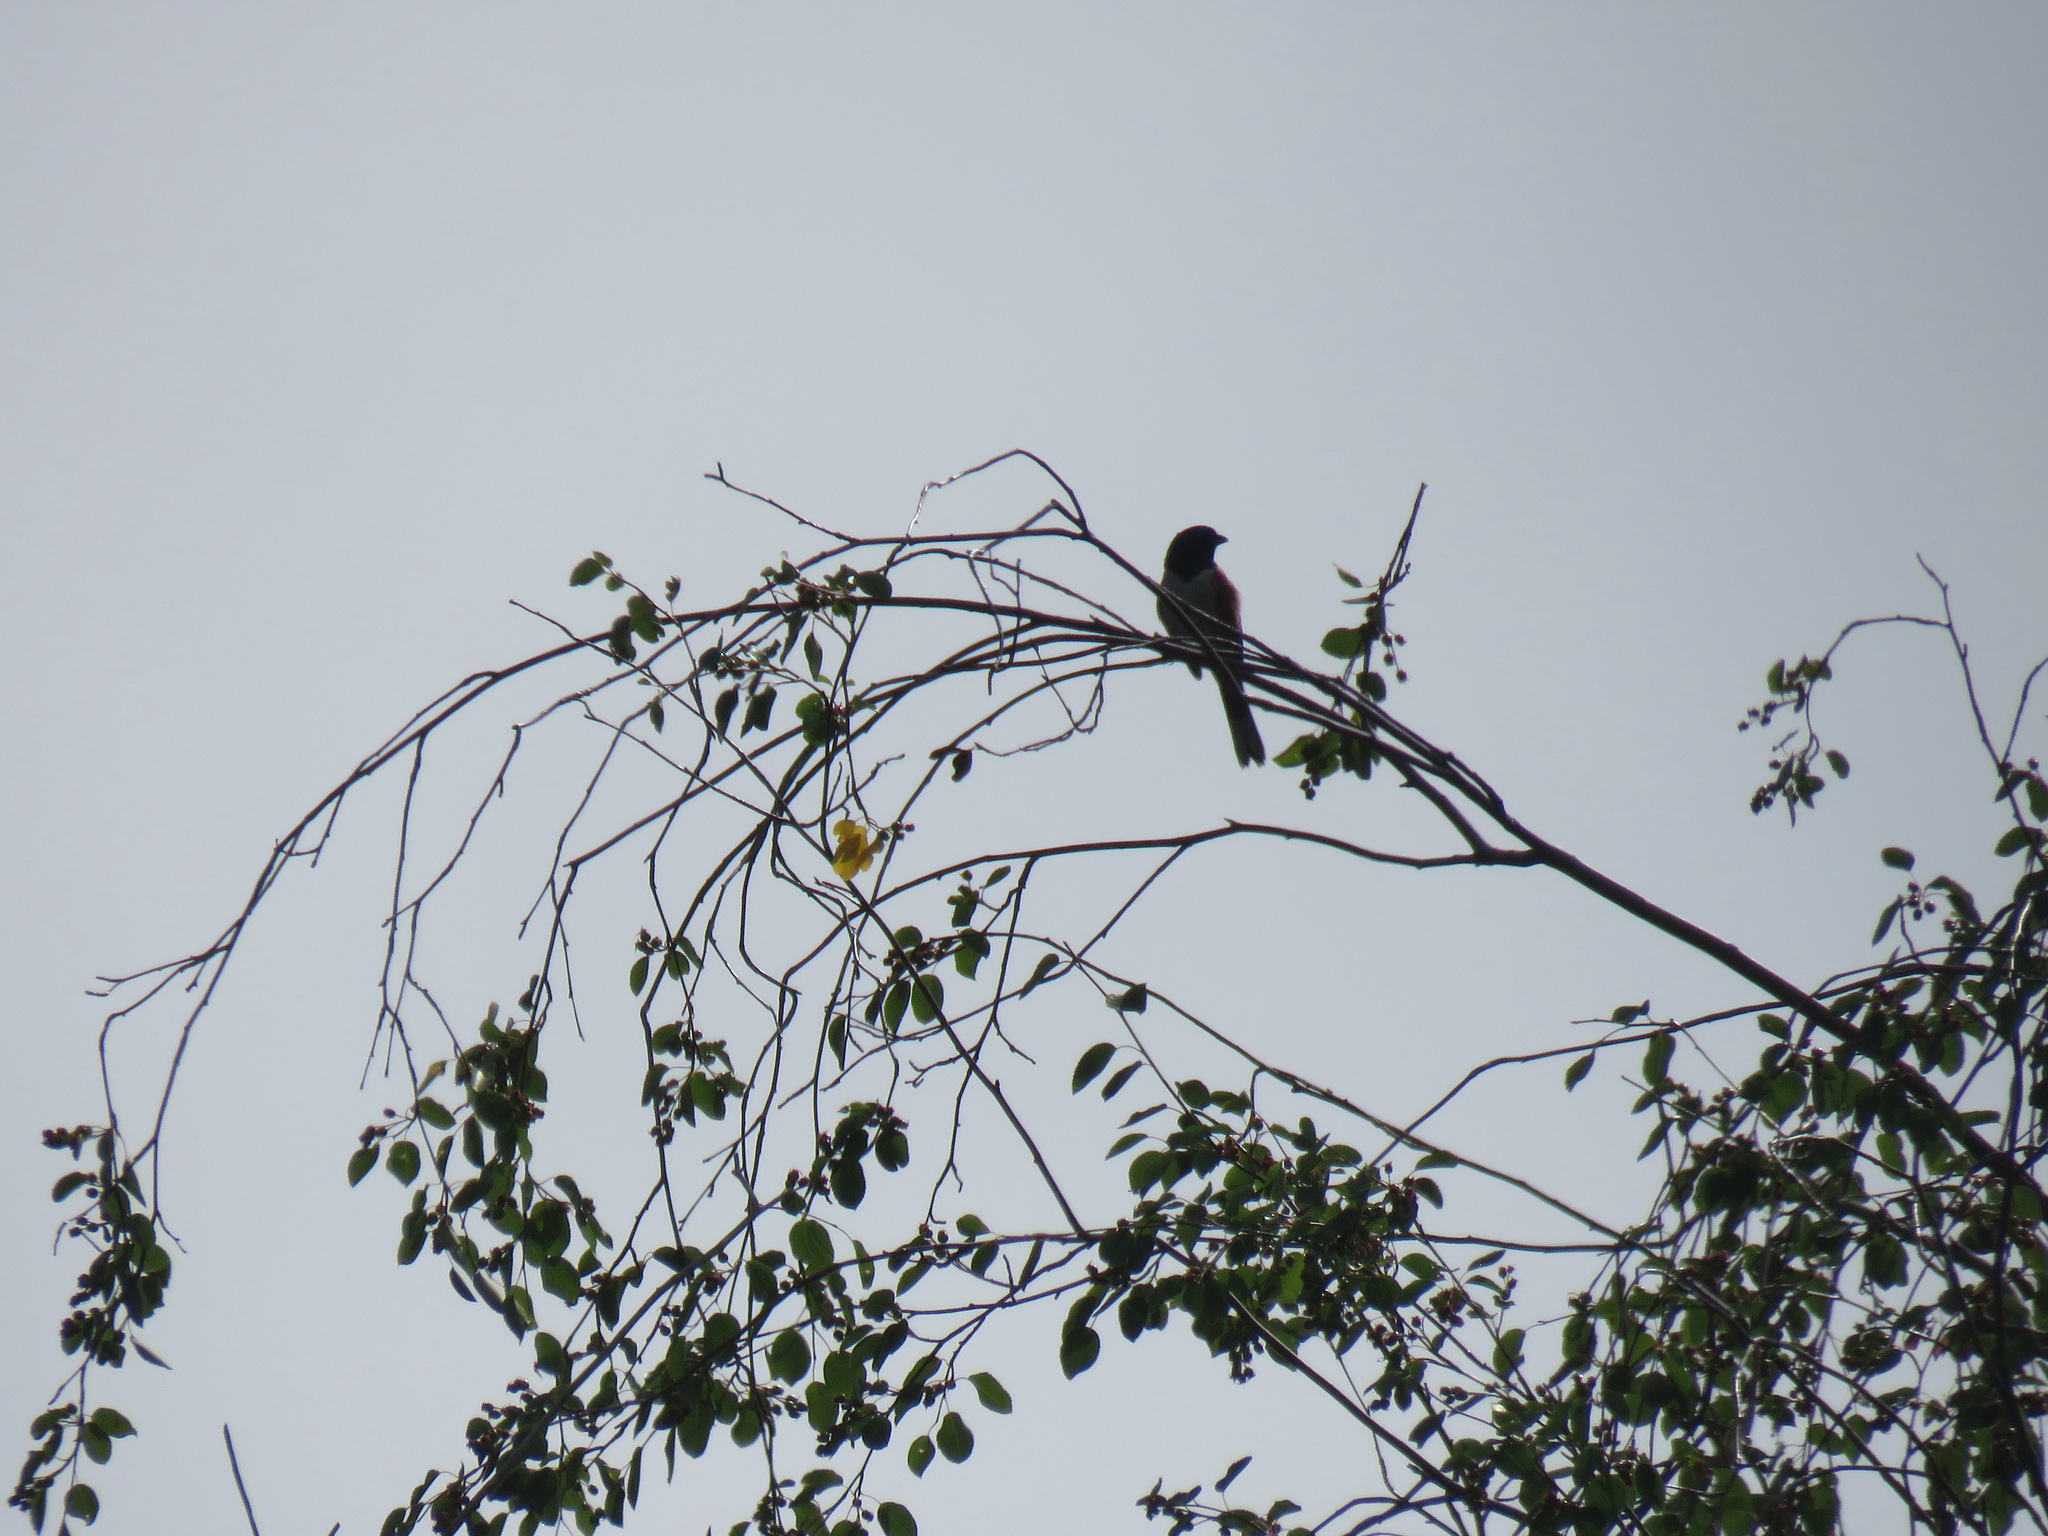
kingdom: Animalia
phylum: Chordata
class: Aves
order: Passeriformes
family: Passerellidae
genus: Pipilo
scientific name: Pipilo maculatus
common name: Spotted towhee
